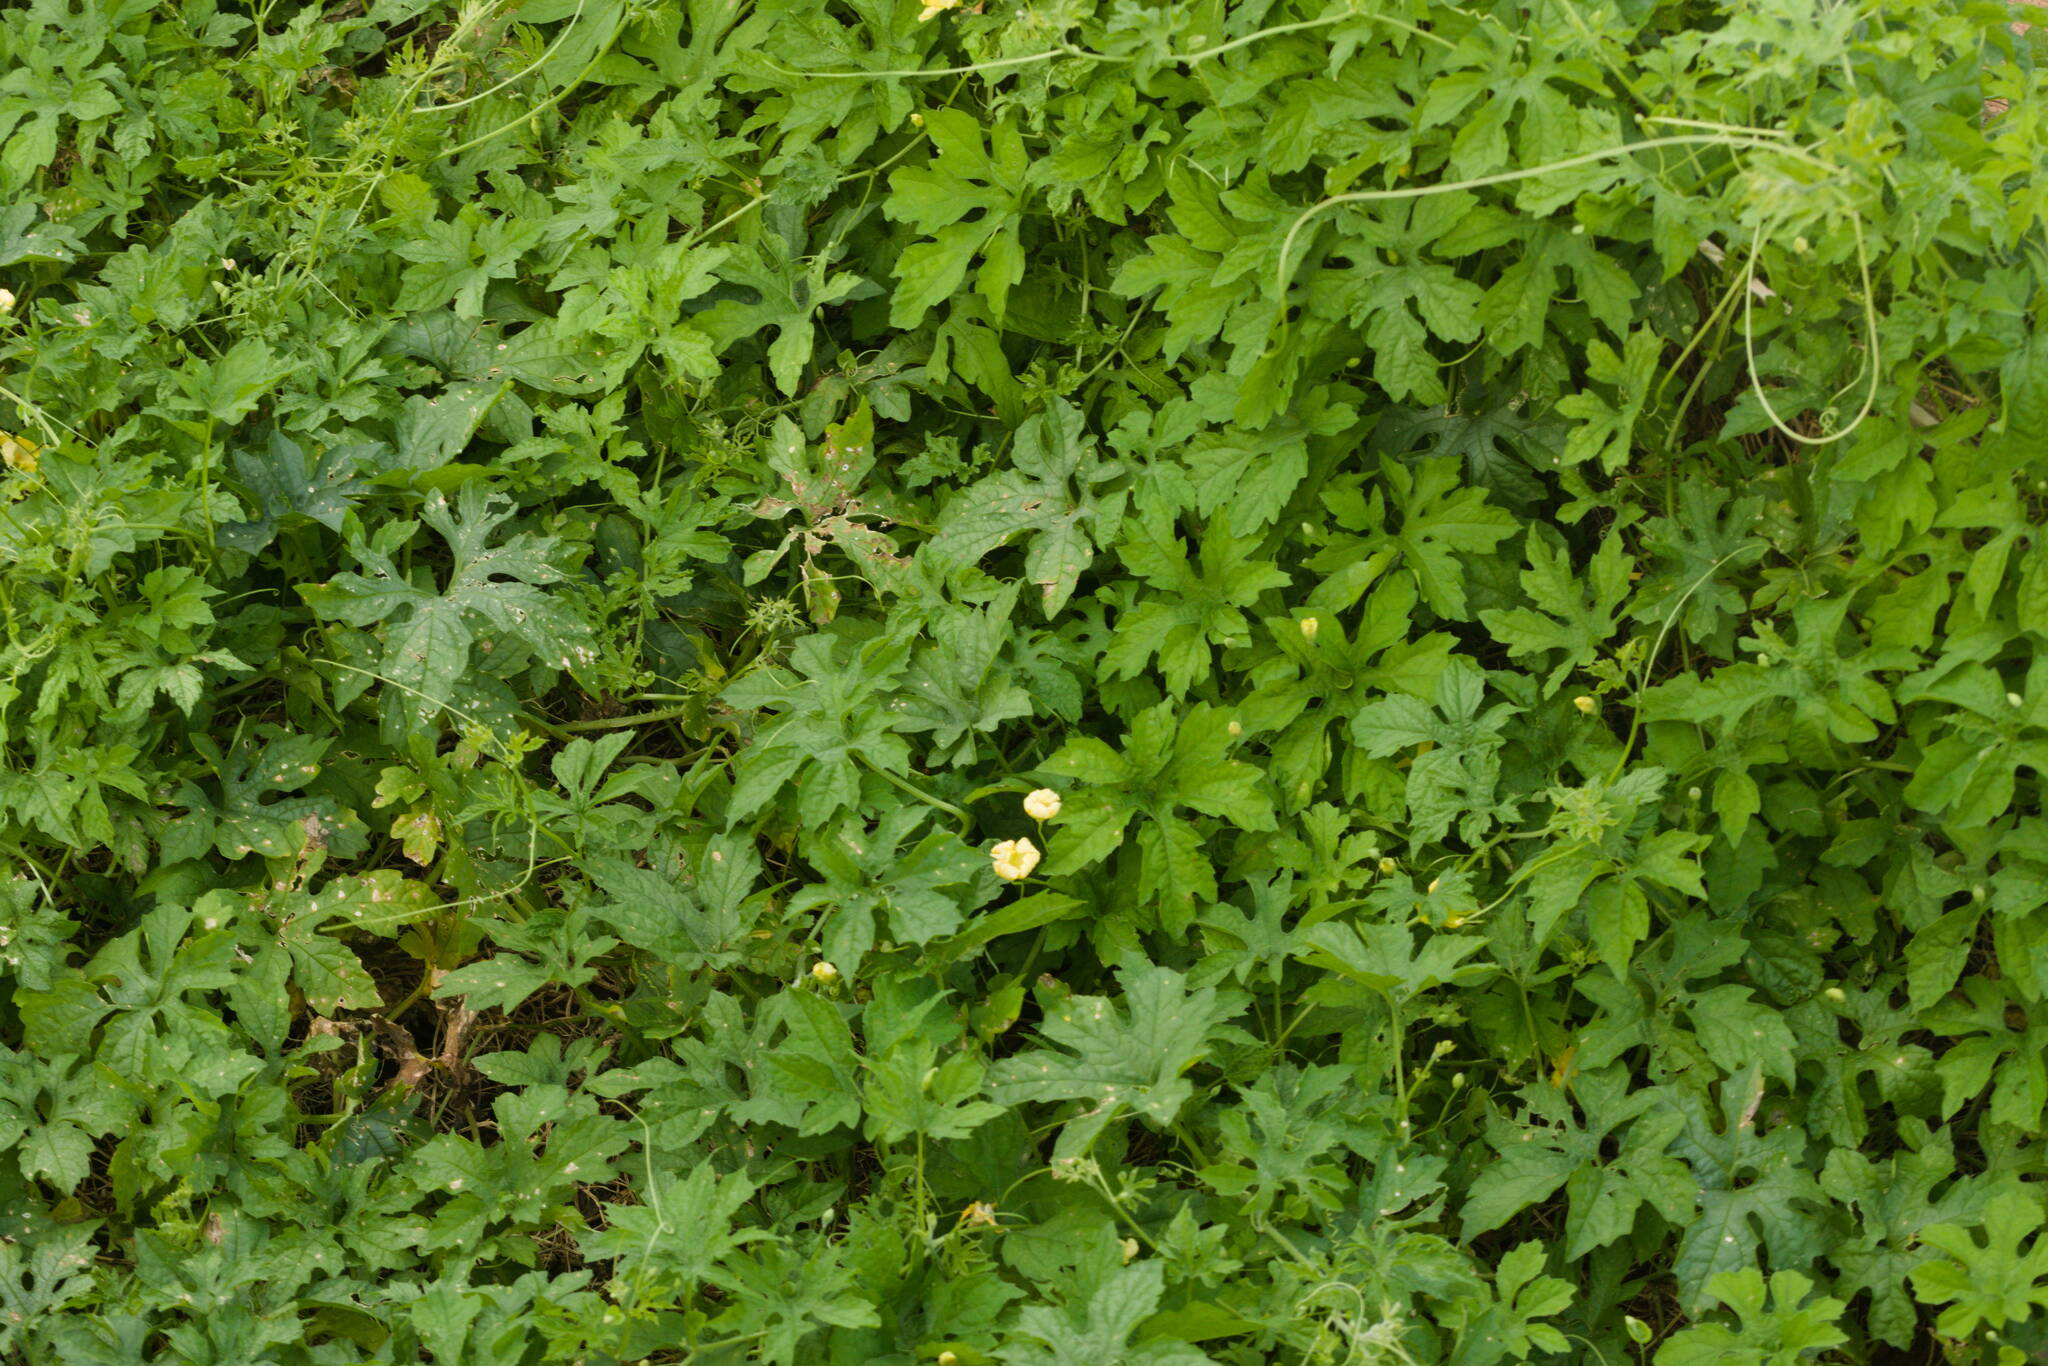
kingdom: Plantae
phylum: Tracheophyta
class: Magnoliopsida
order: Cucurbitales
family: Cucurbitaceae
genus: Momordica
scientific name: Momordica charantia
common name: Balsampear
